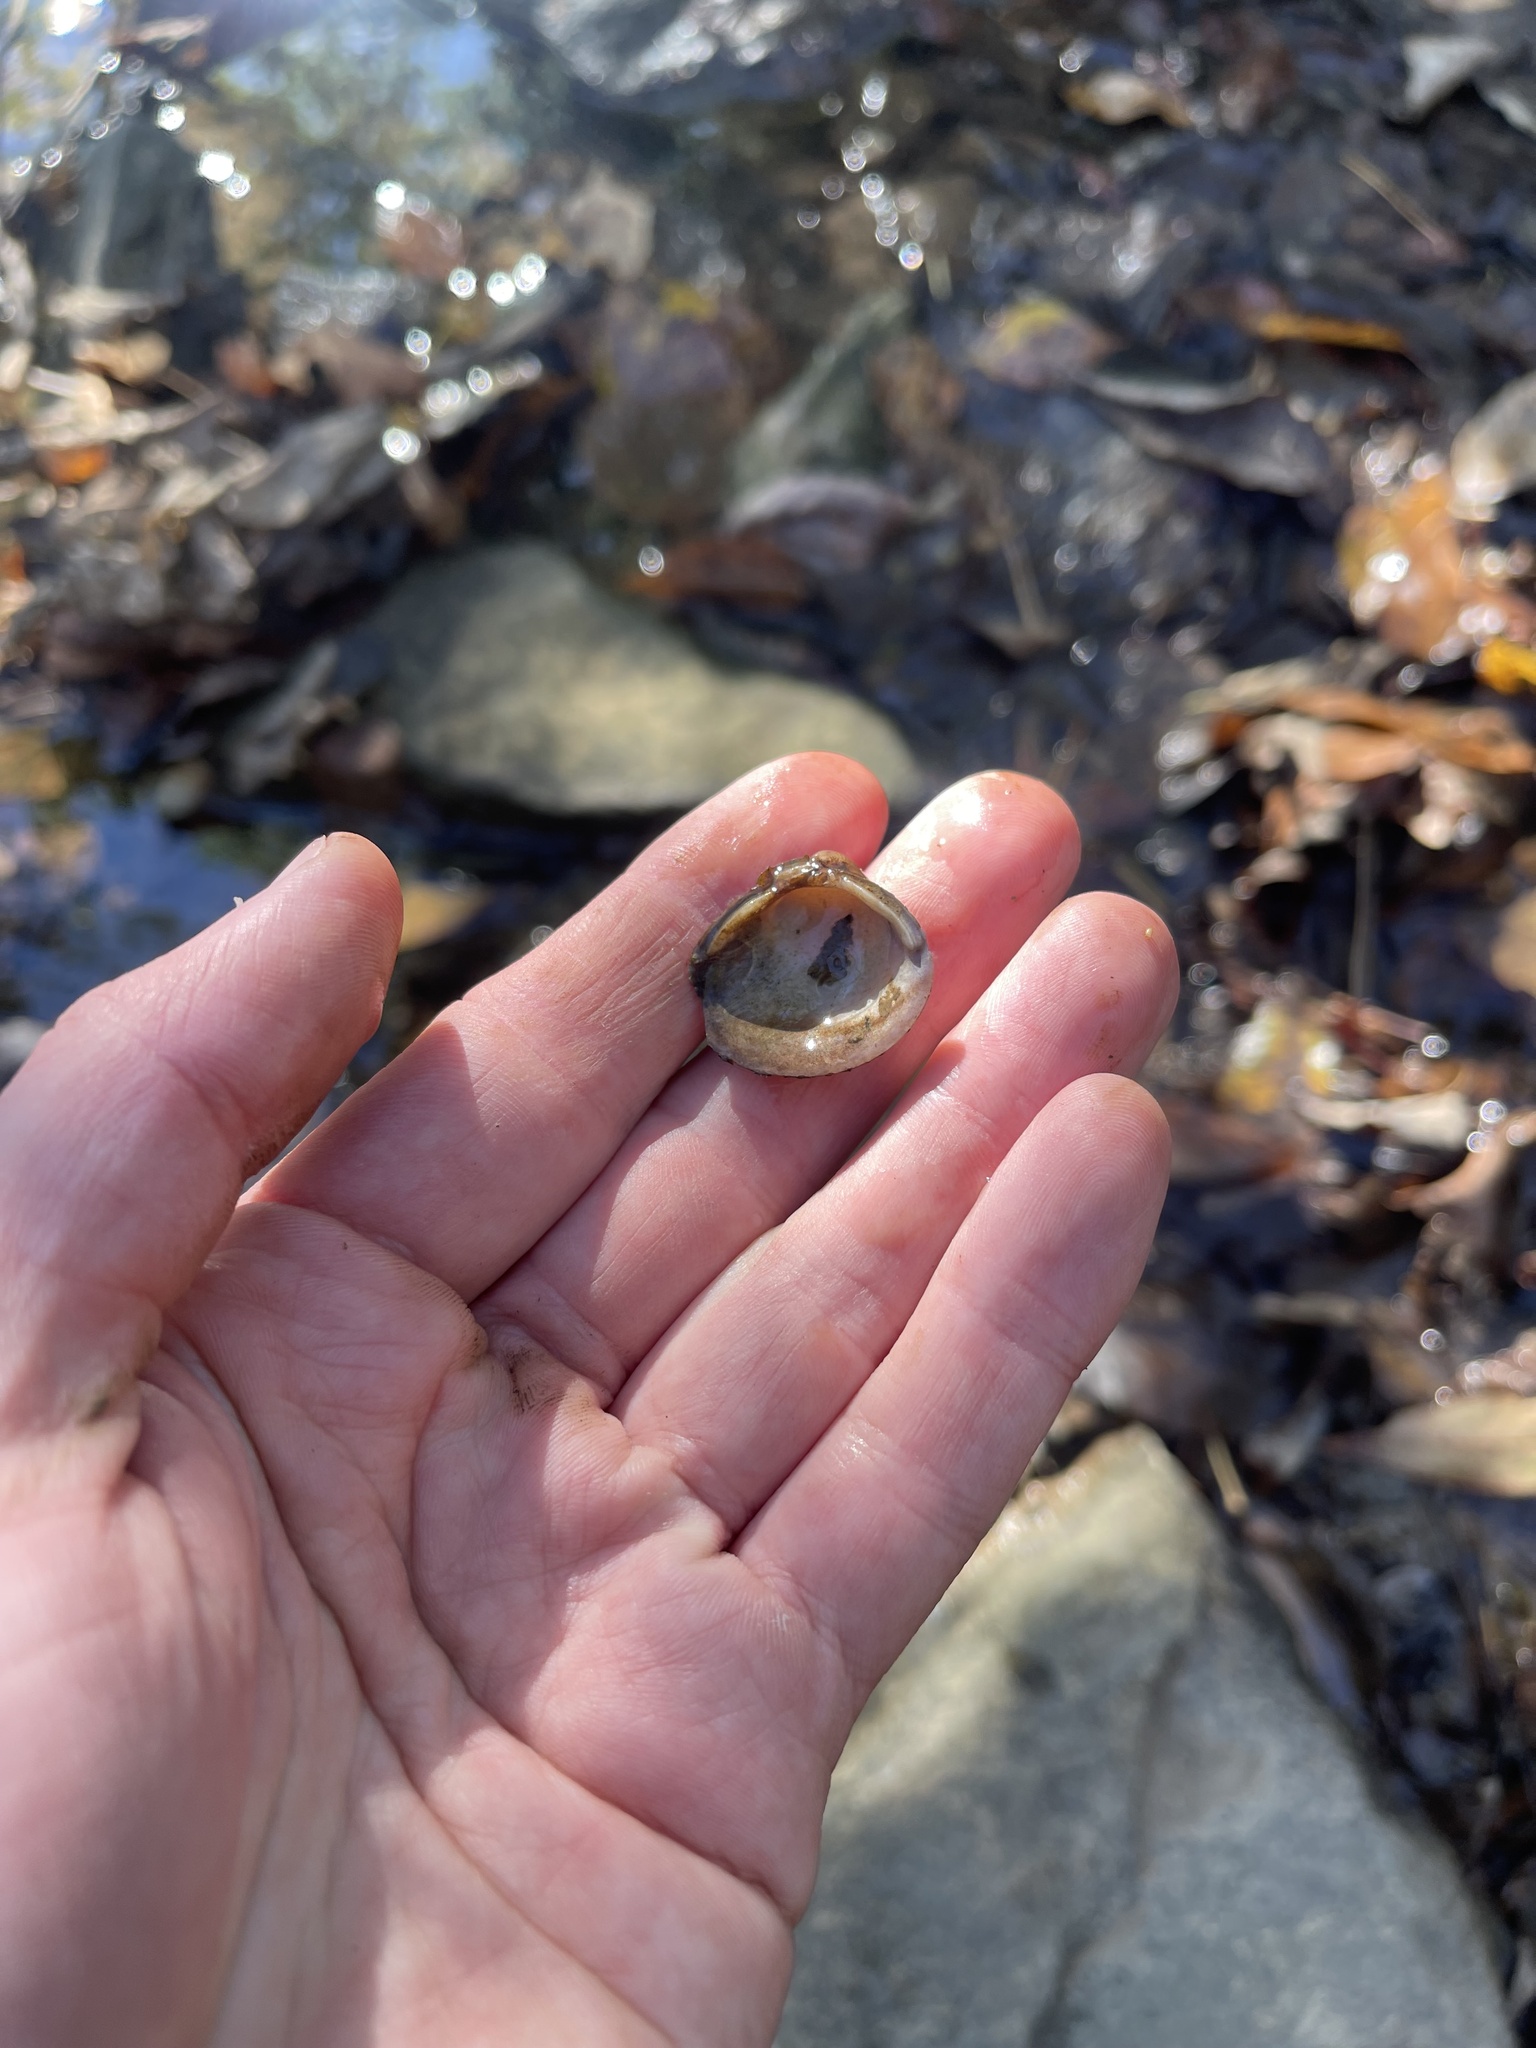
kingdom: Animalia
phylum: Mollusca
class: Bivalvia
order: Venerida
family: Cyrenidae
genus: Corbicula
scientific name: Corbicula fluminea
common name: Asian clam
